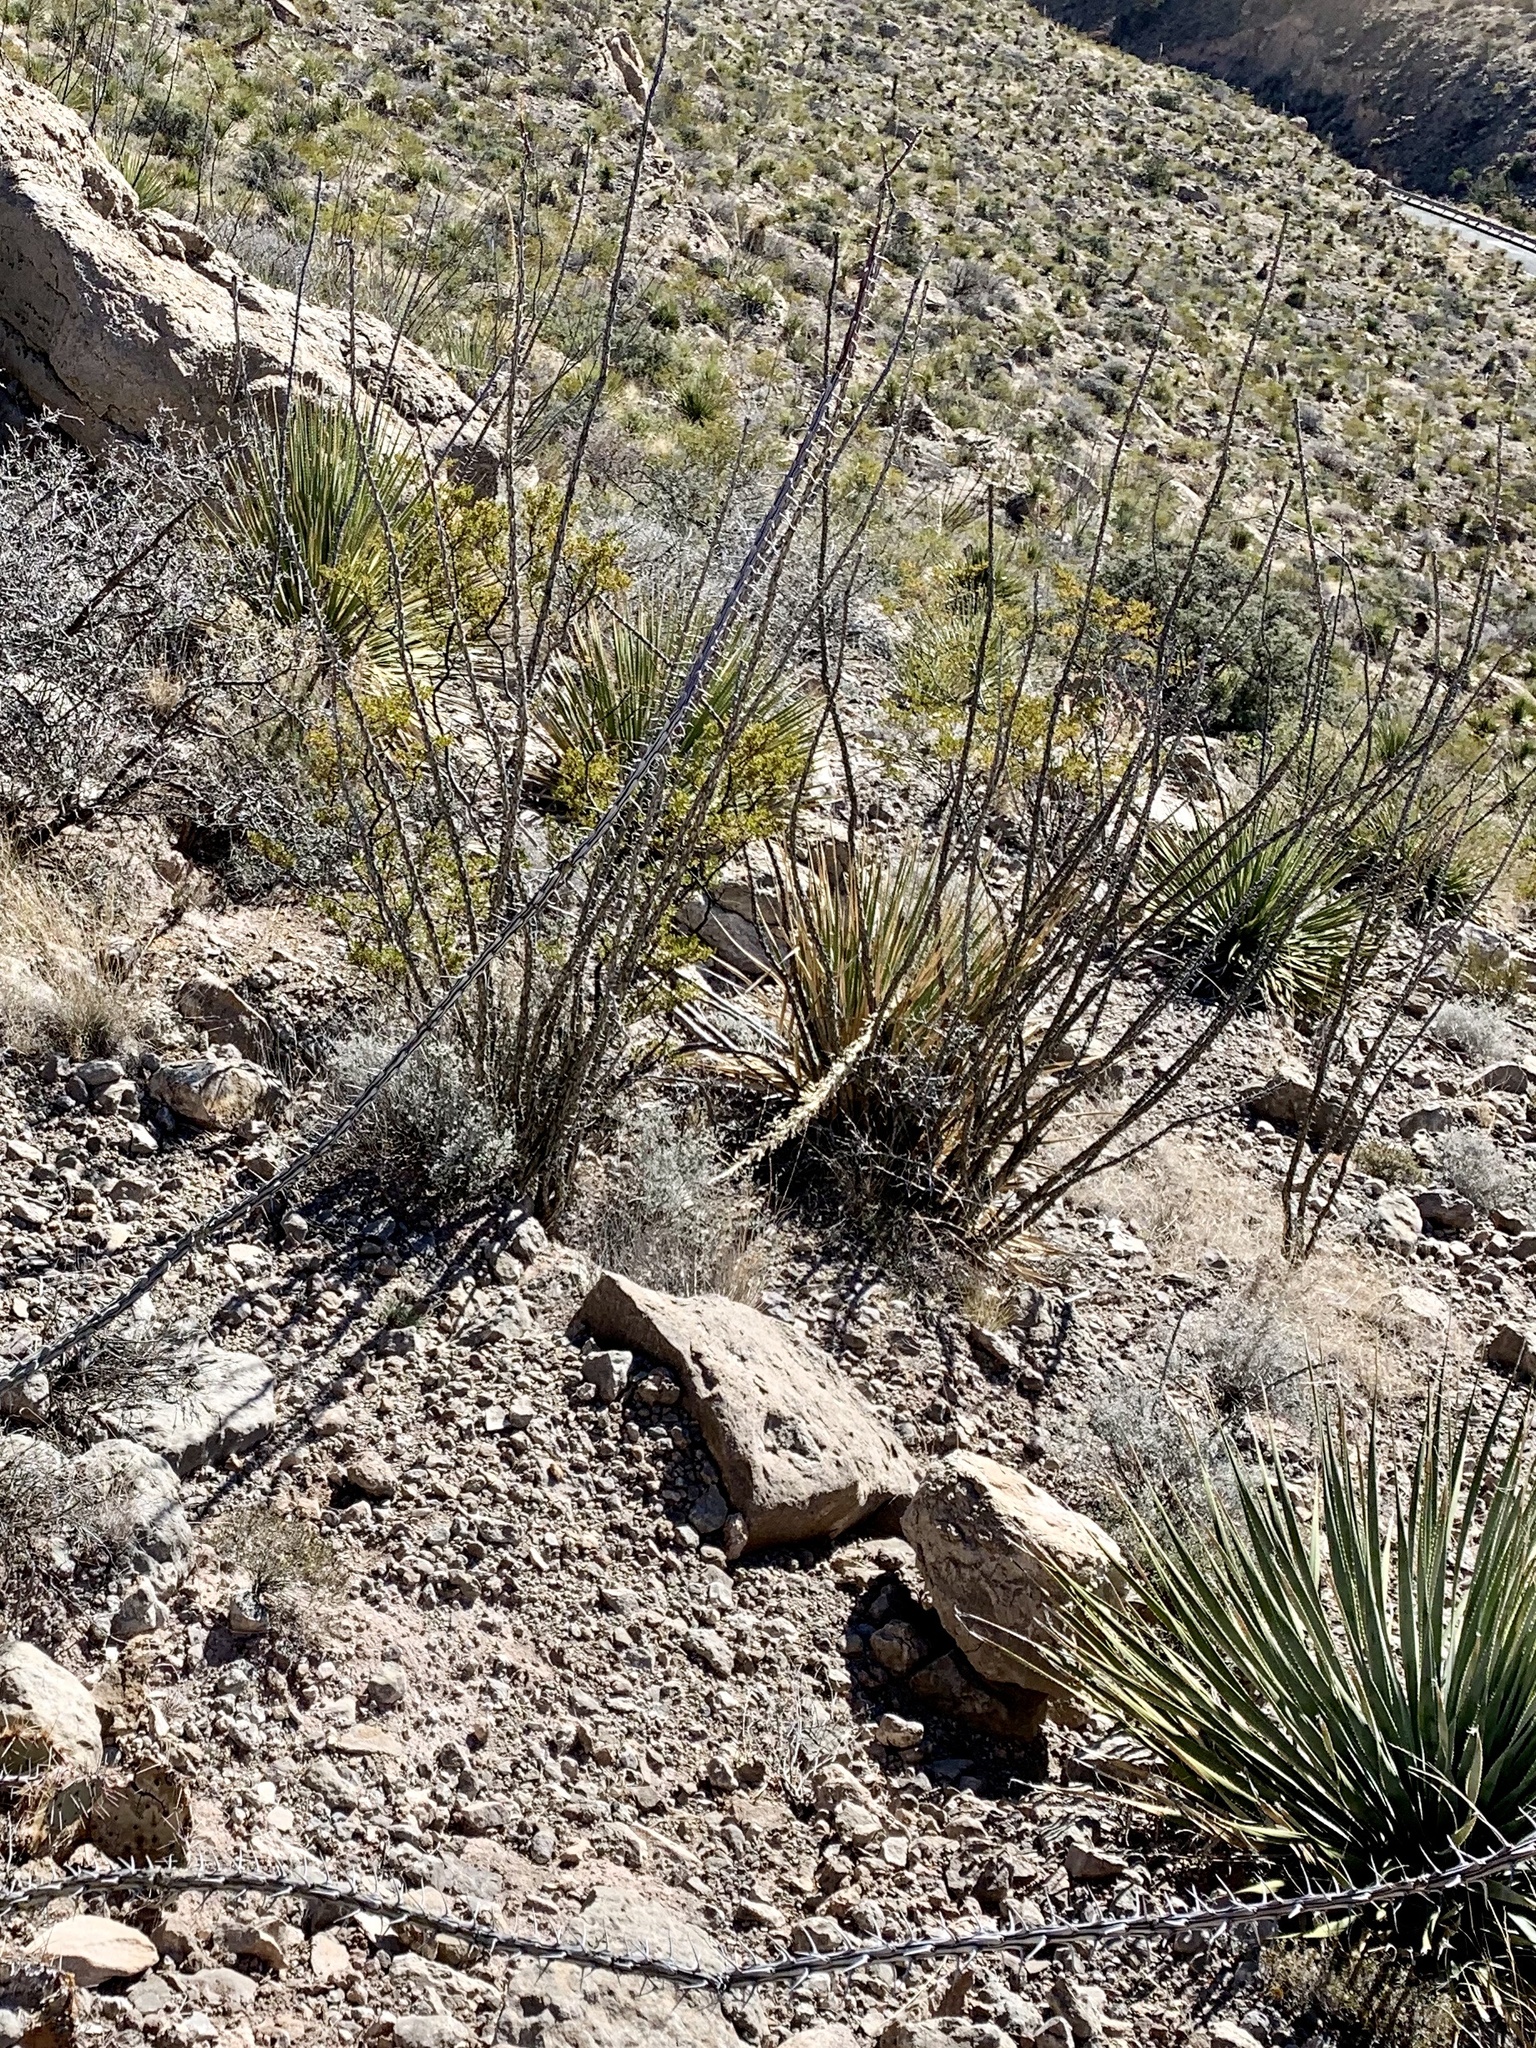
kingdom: Plantae
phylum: Tracheophyta
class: Magnoliopsida
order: Ericales
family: Fouquieriaceae
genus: Fouquieria
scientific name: Fouquieria splendens
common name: Vine-cactus
